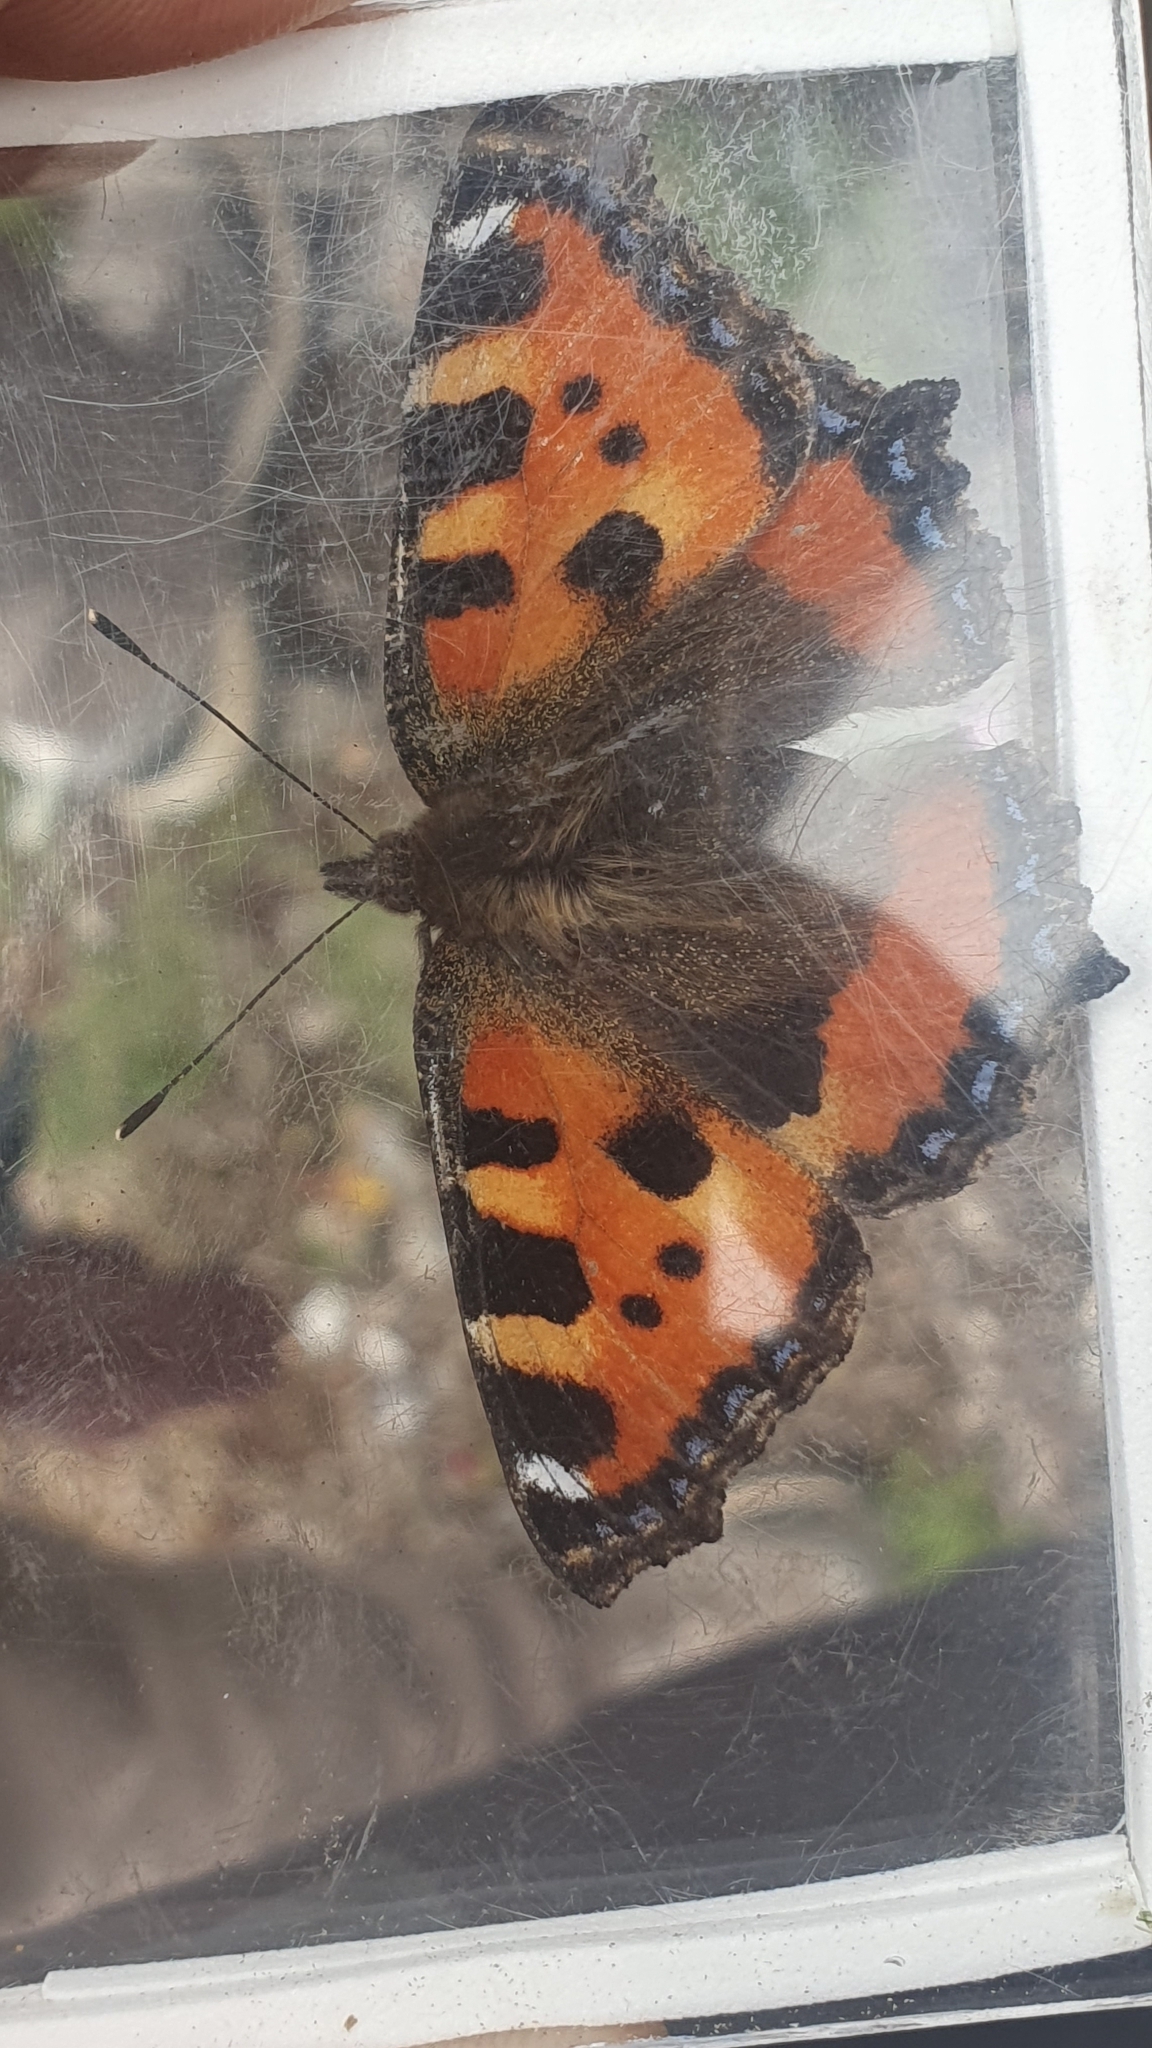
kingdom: Animalia
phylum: Arthropoda
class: Insecta
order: Lepidoptera
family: Nymphalidae
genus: Aglais
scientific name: Aglais urticae
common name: Small tortoiseshell
